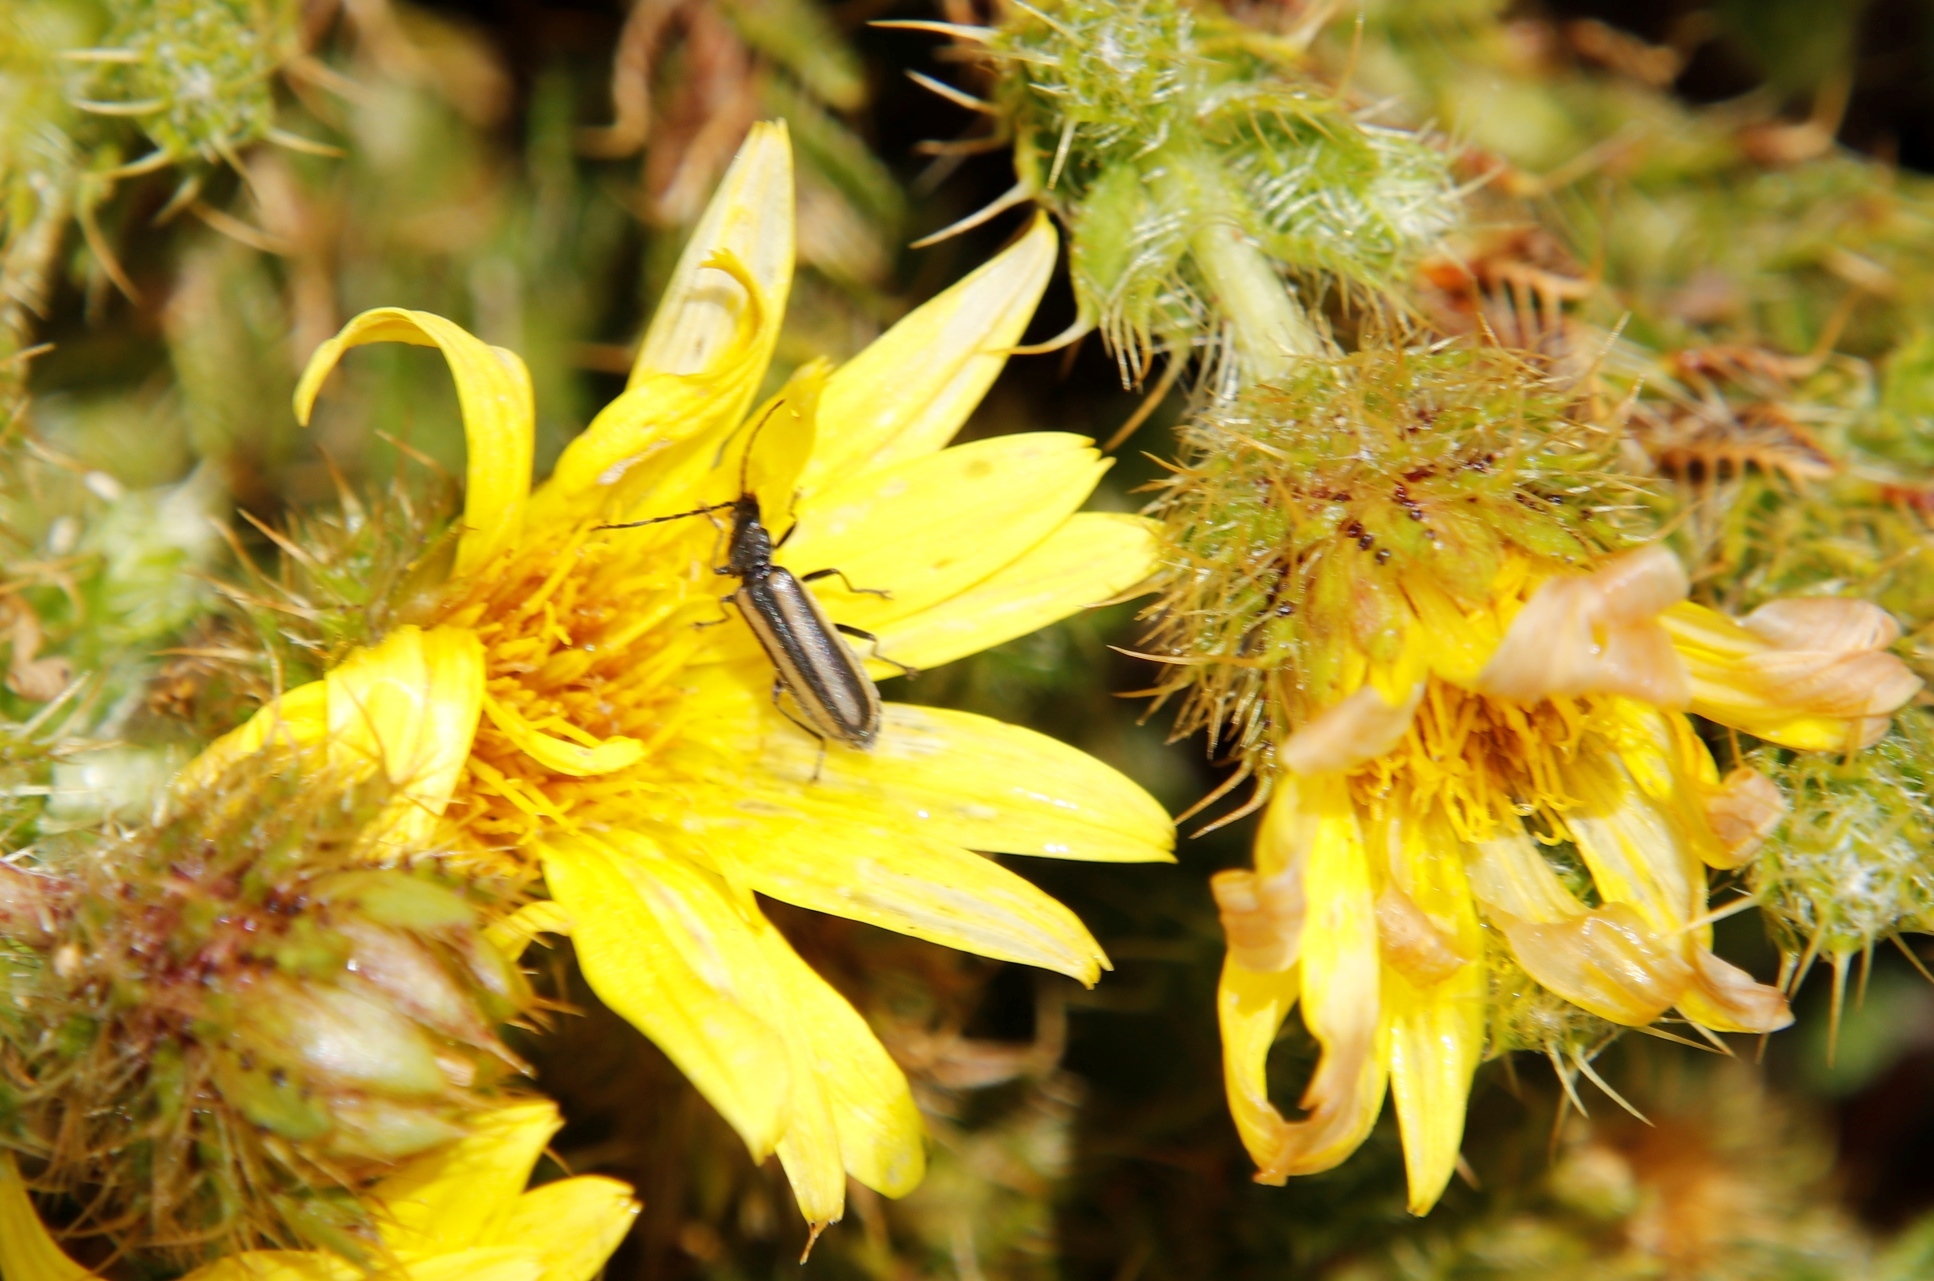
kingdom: Plantae
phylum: Tracheophyta
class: Magnoliopsida
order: Asterales
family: Asteraceae
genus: Cullumia
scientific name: Cullumia reticulata
